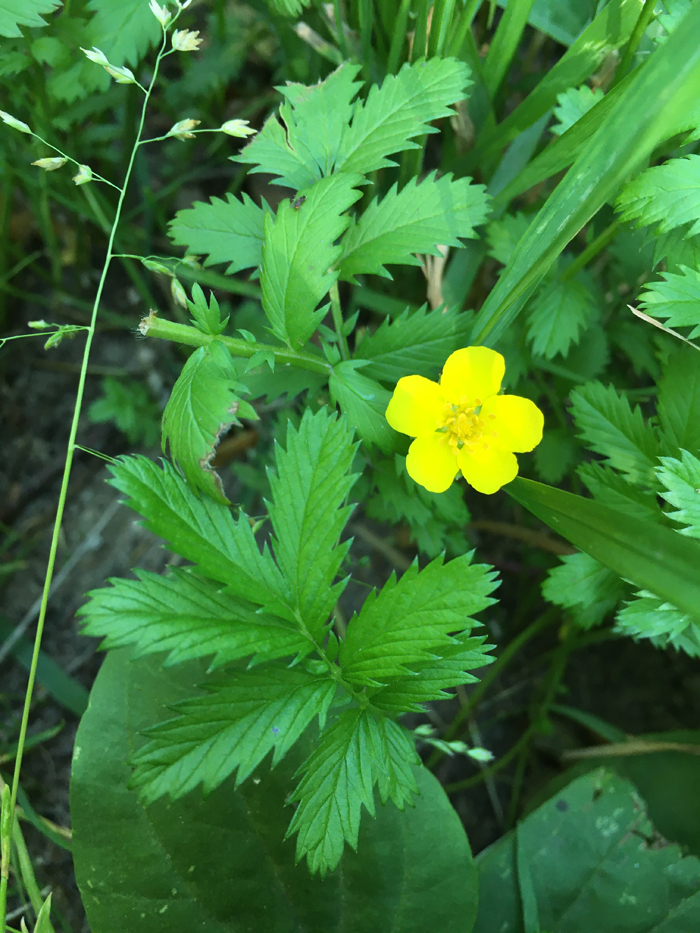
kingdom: Plantae
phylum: Tracheophyta
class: Magnoliopsida
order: Rosales
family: Rosaceae
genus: Argentina
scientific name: Argentina anserina
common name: Common silverweed
